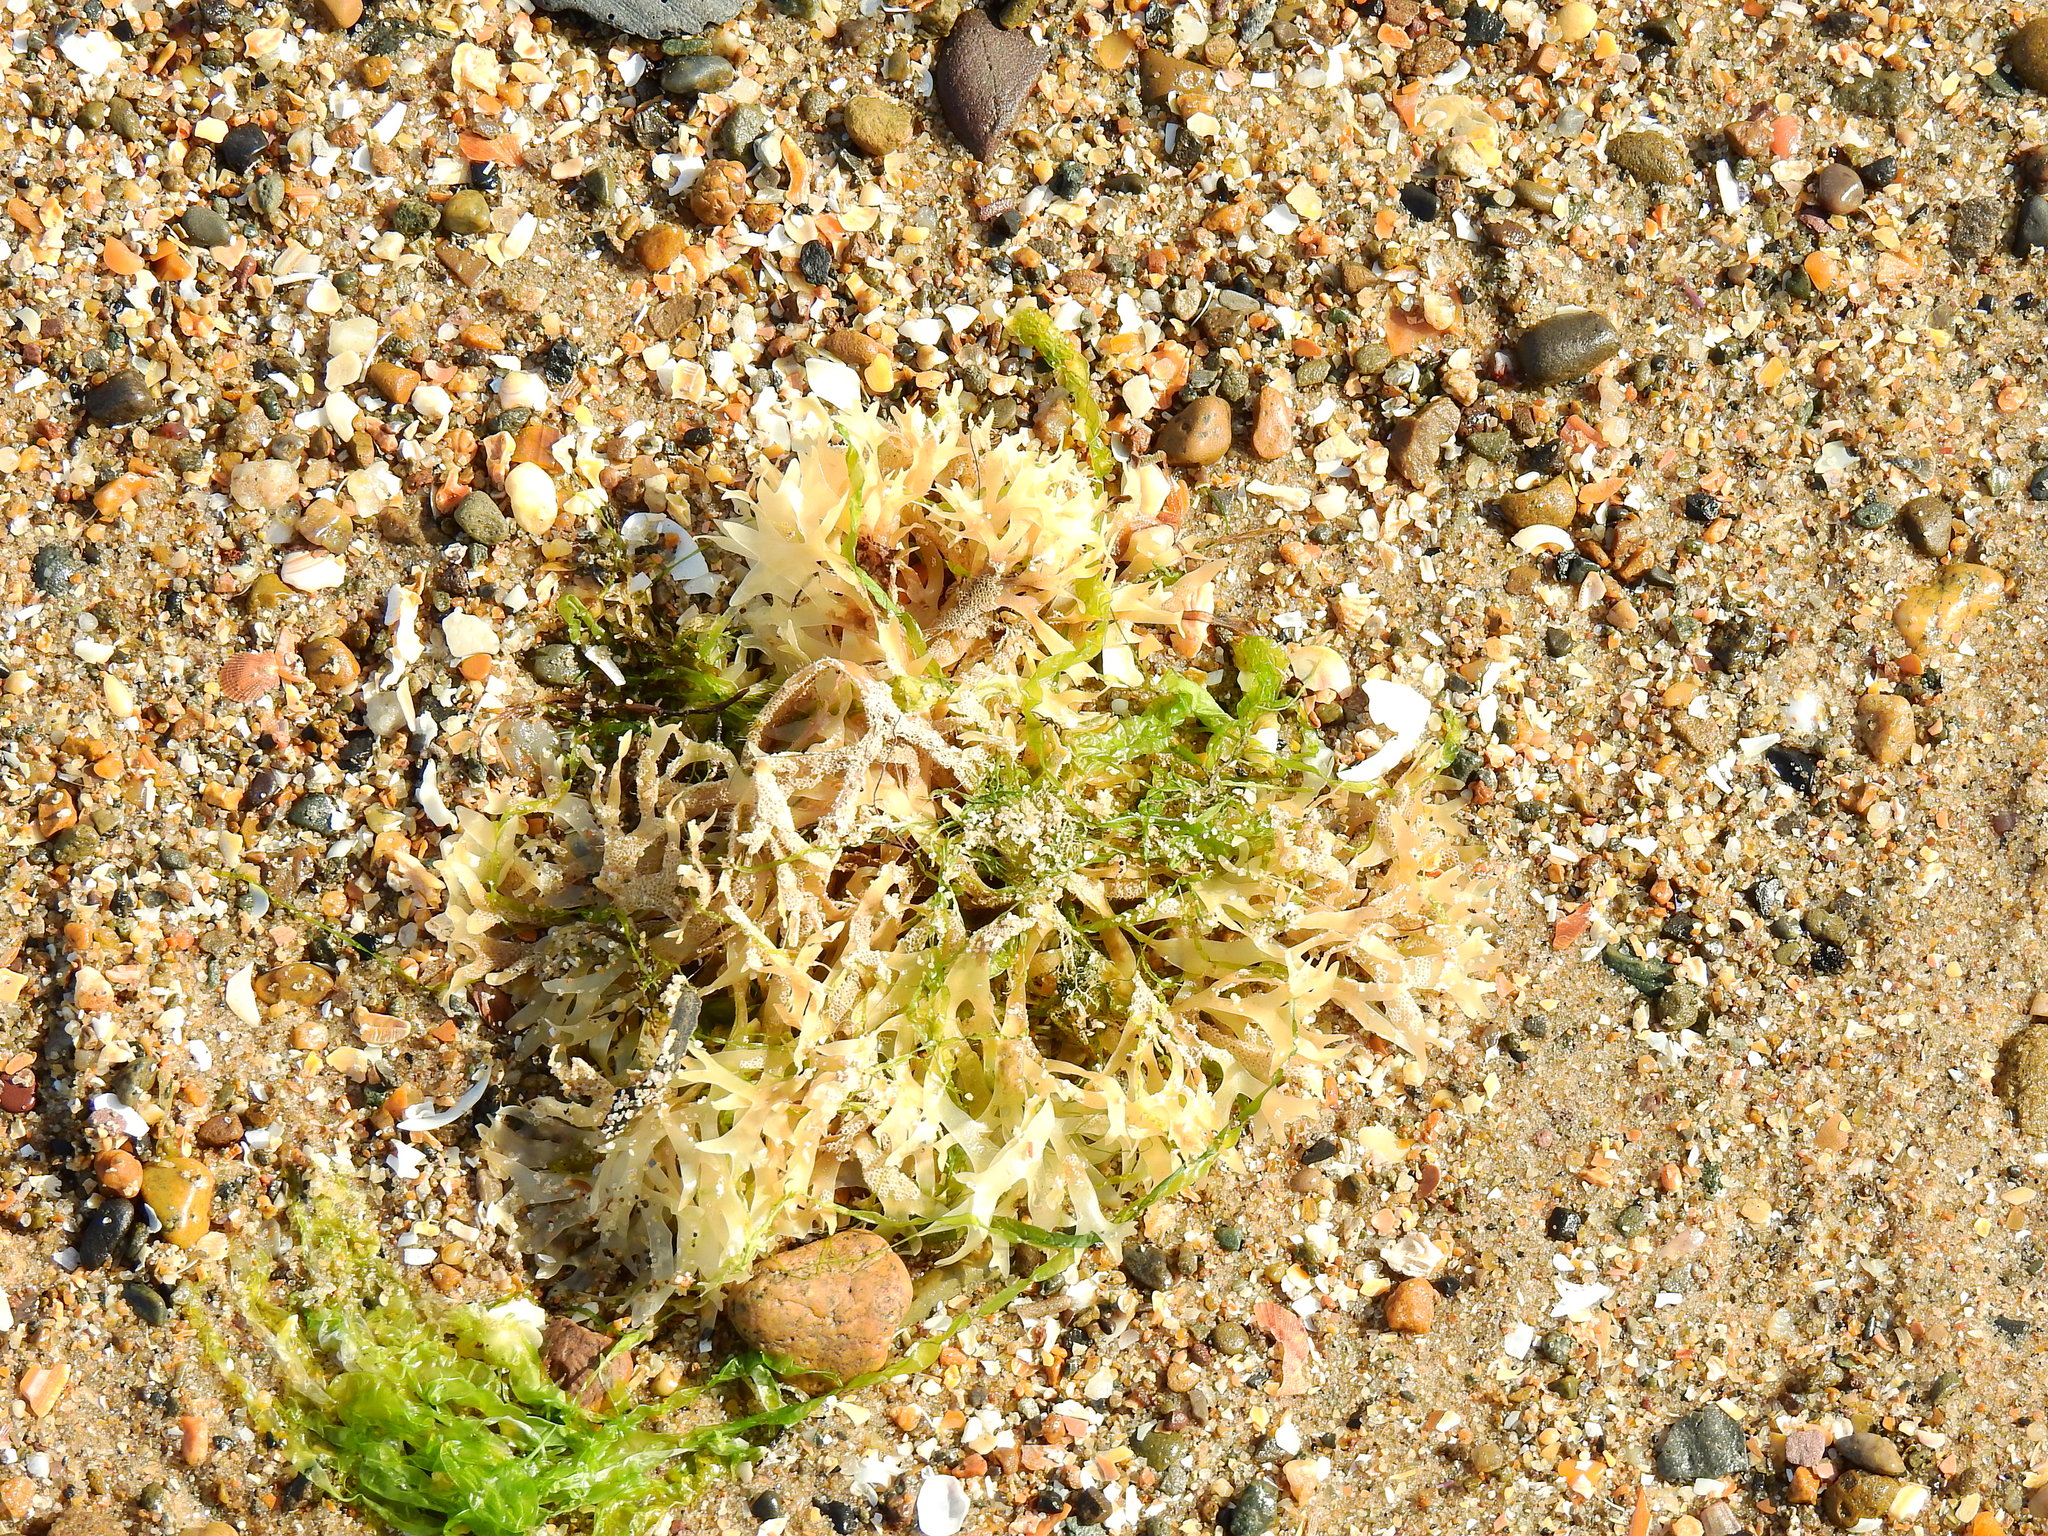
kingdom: Plantae
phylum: Rhodophyta
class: Florideophyceae
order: Gigartinales
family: Gigartinaceae
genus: Chondrus
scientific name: Chondrus crispus
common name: Carrageen
